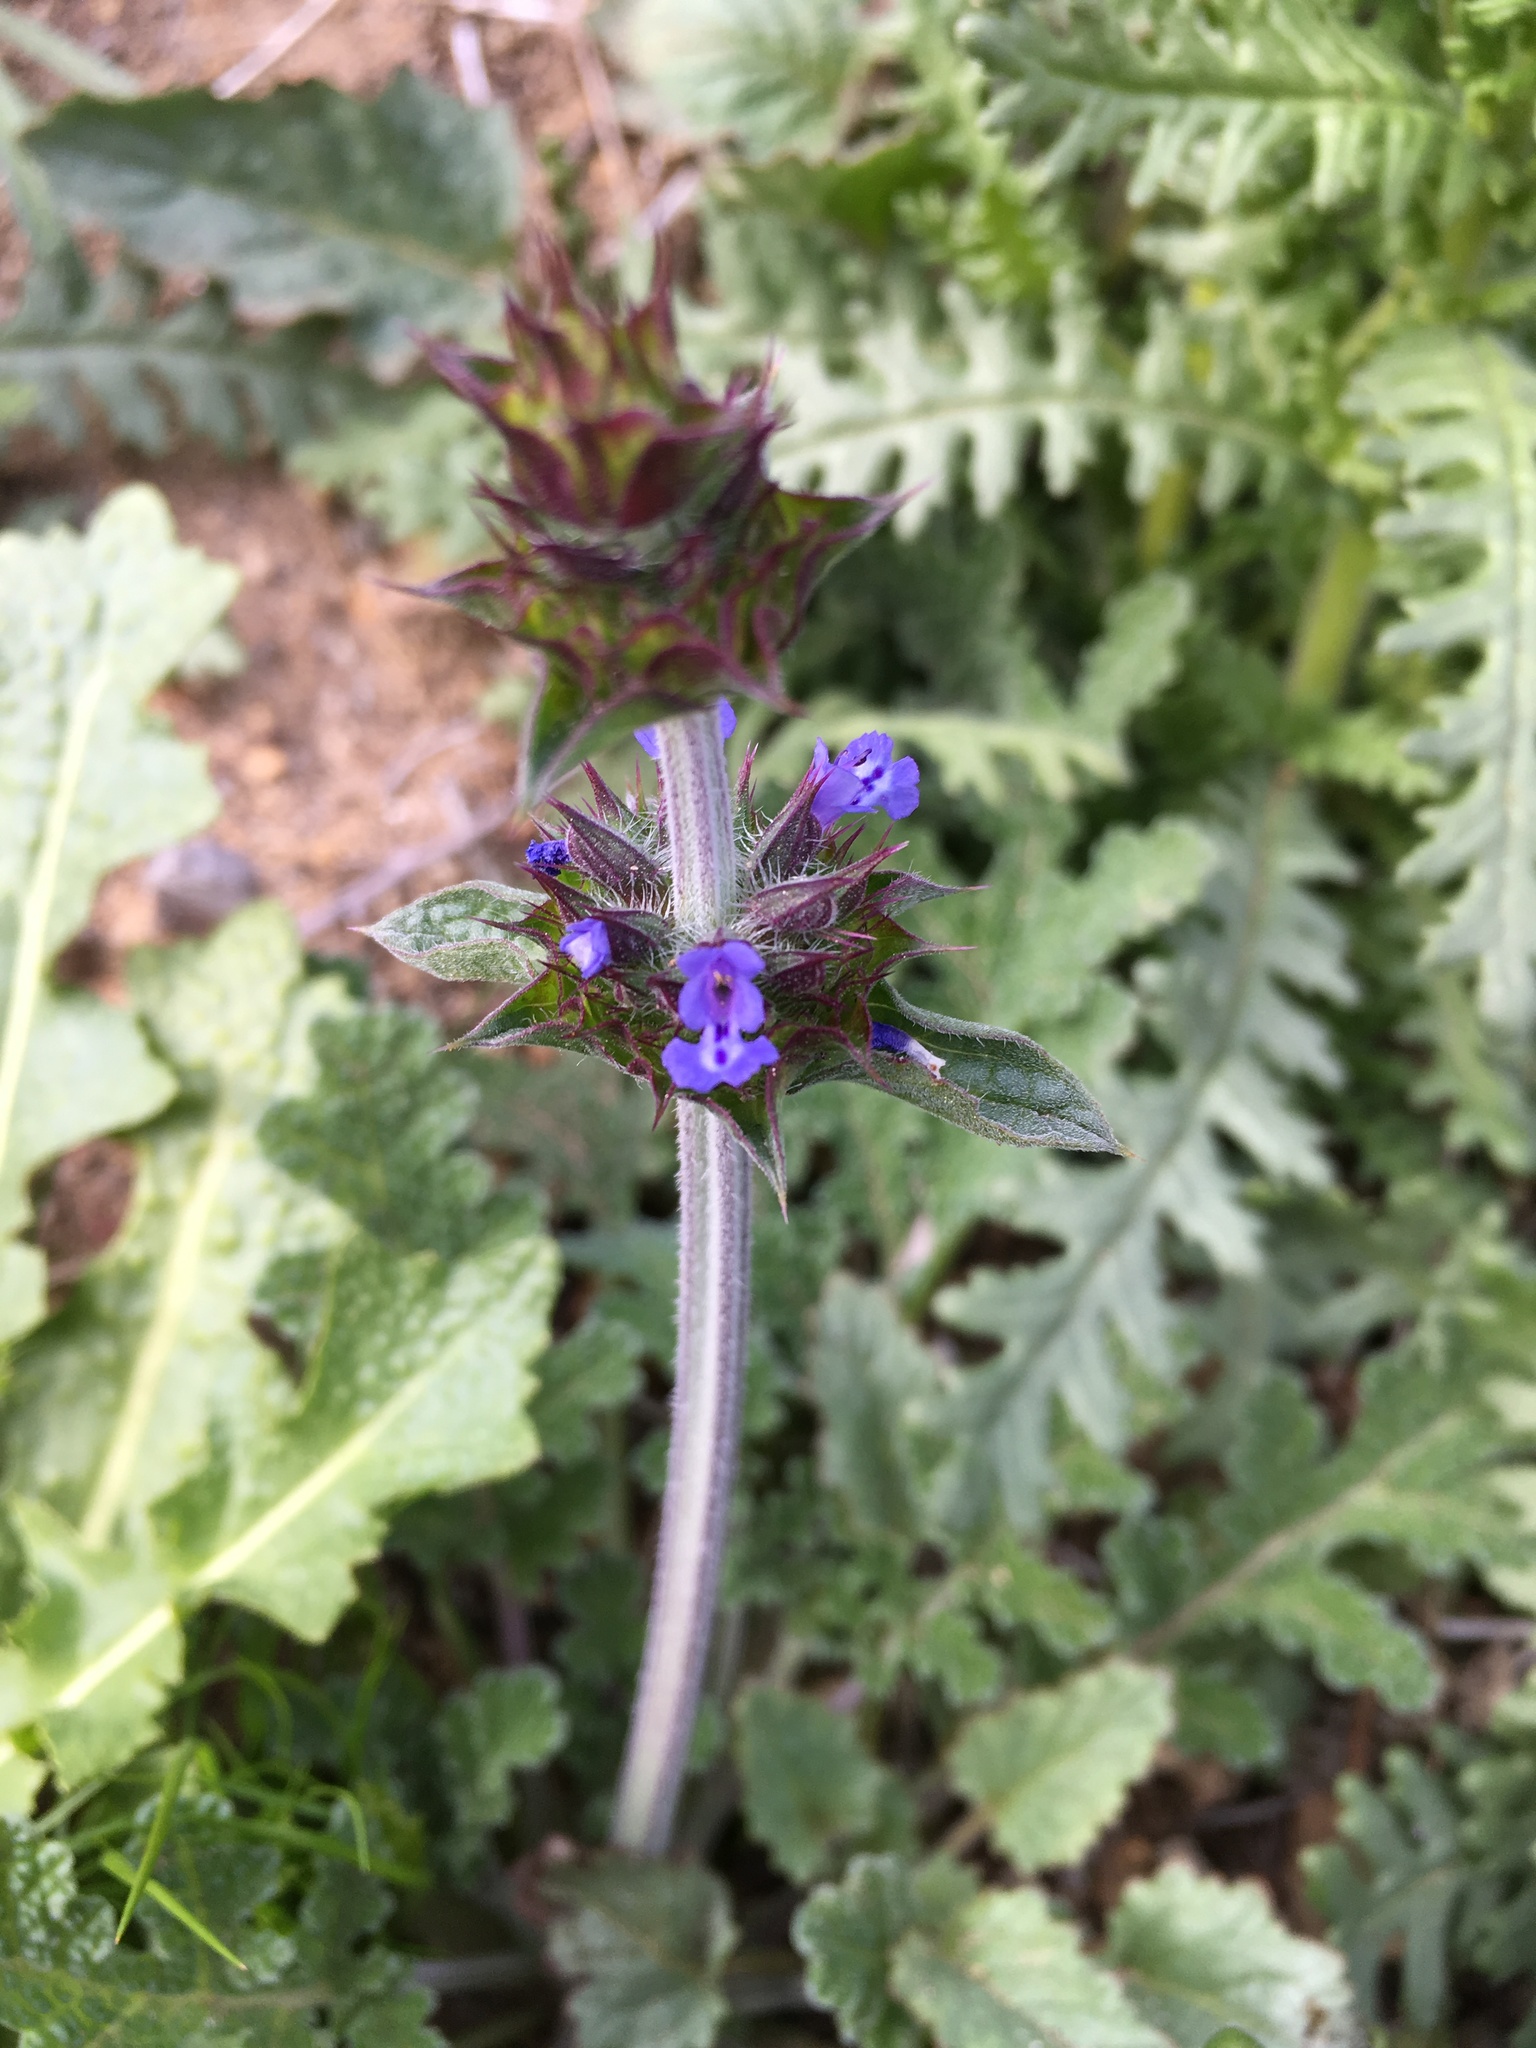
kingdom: Plantae
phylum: Tracheophyta
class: Magnoliopsida
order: Lamiales
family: Lamiaceae
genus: Salvia
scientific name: Salvia columbariae
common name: Chia
